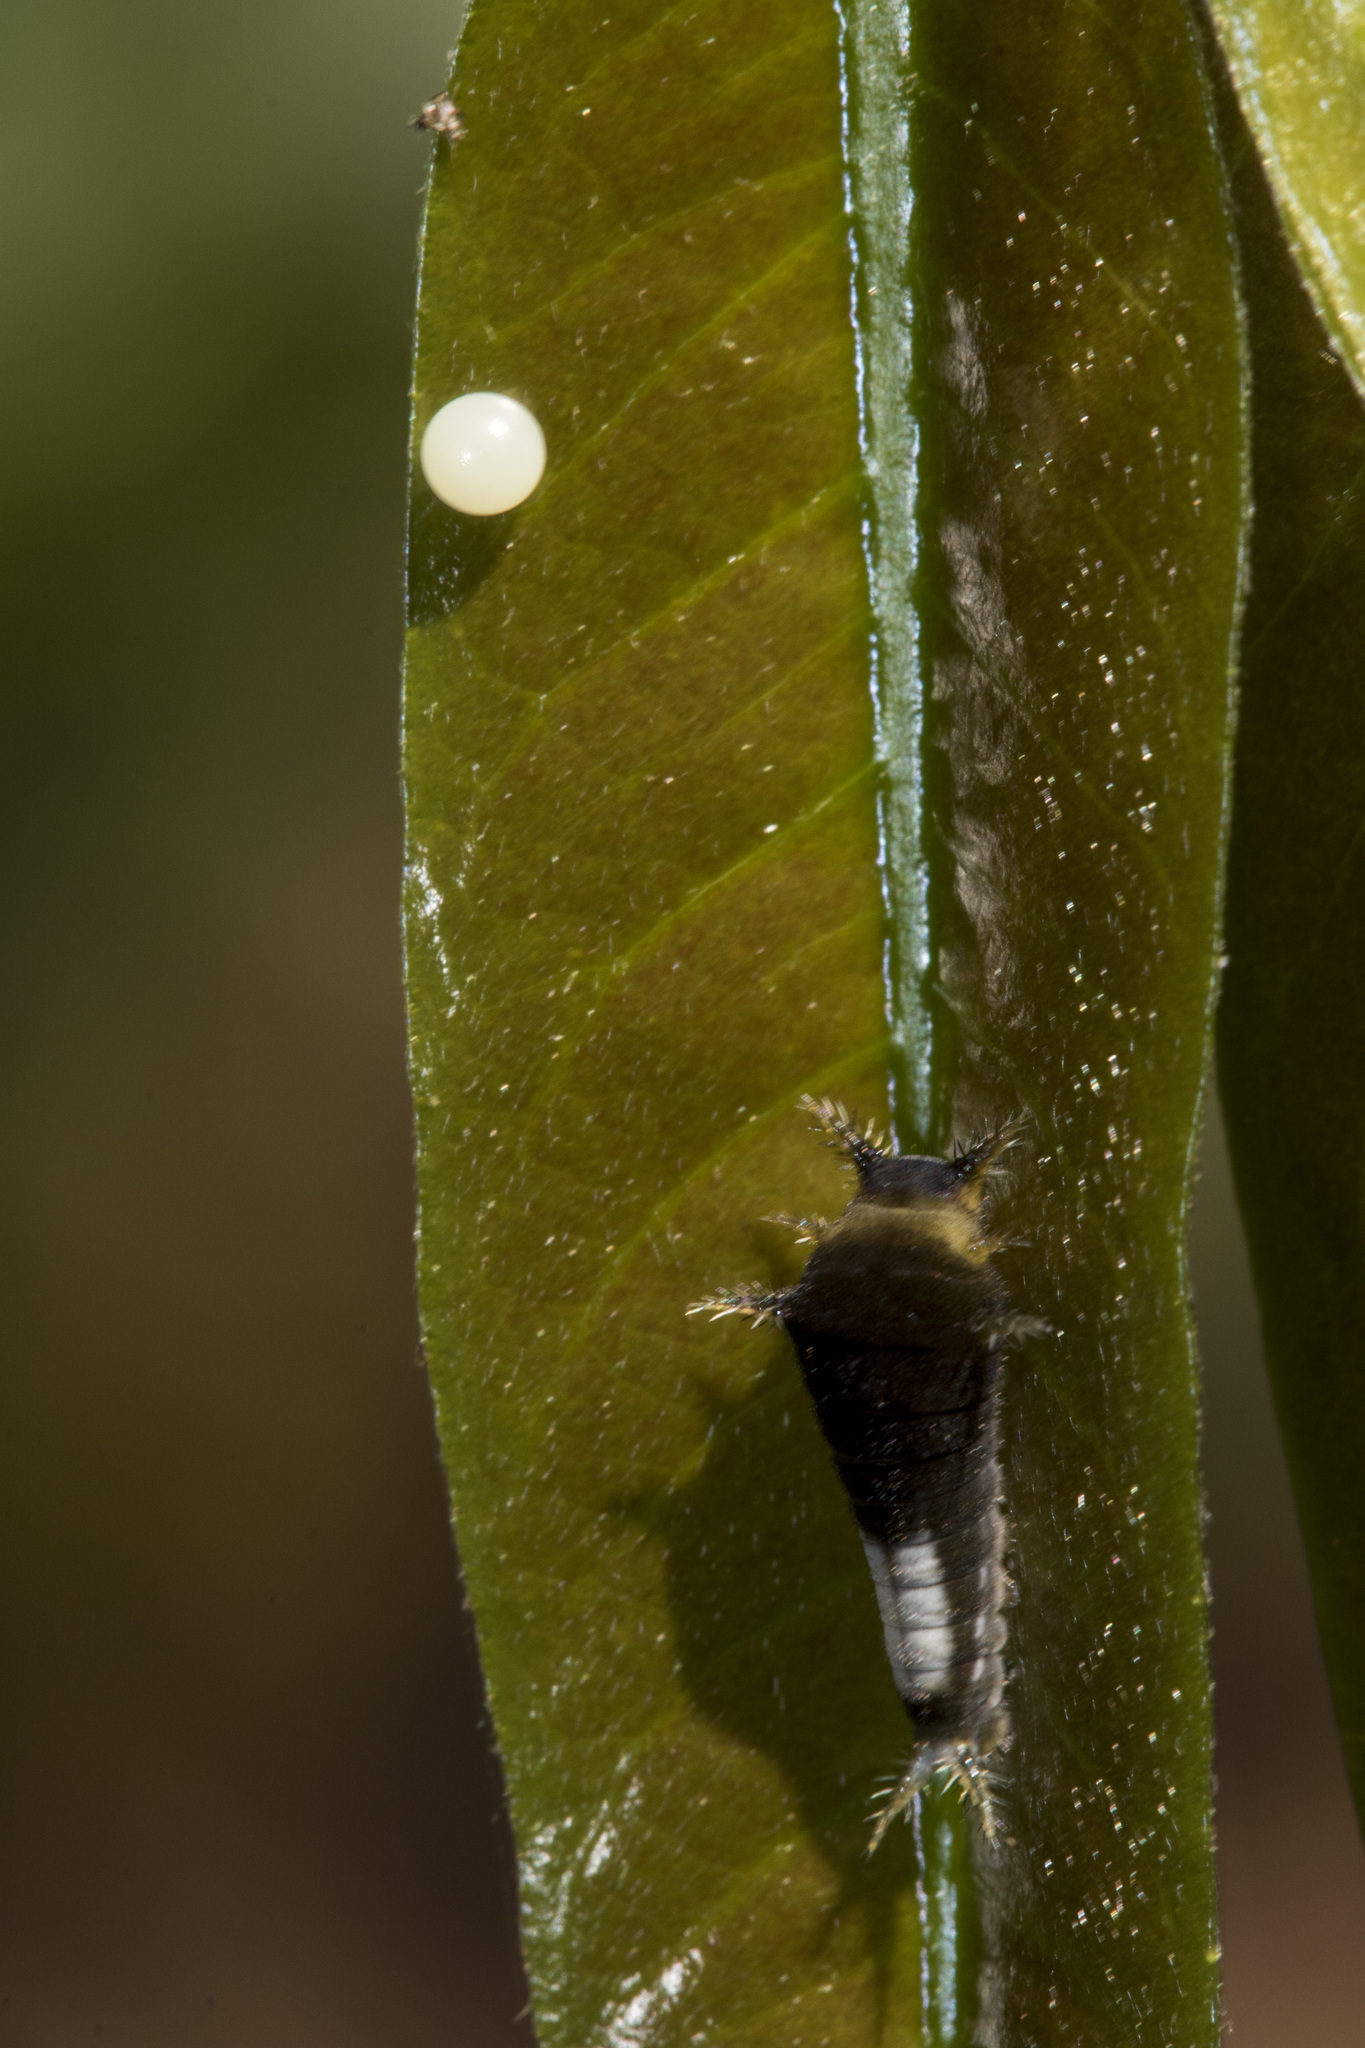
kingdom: Animalia
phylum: Arthropoda
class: Insecta
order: Lepidoptera
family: Papilionidae
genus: Graphium
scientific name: Graphium agamemnon
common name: Tailed jay
